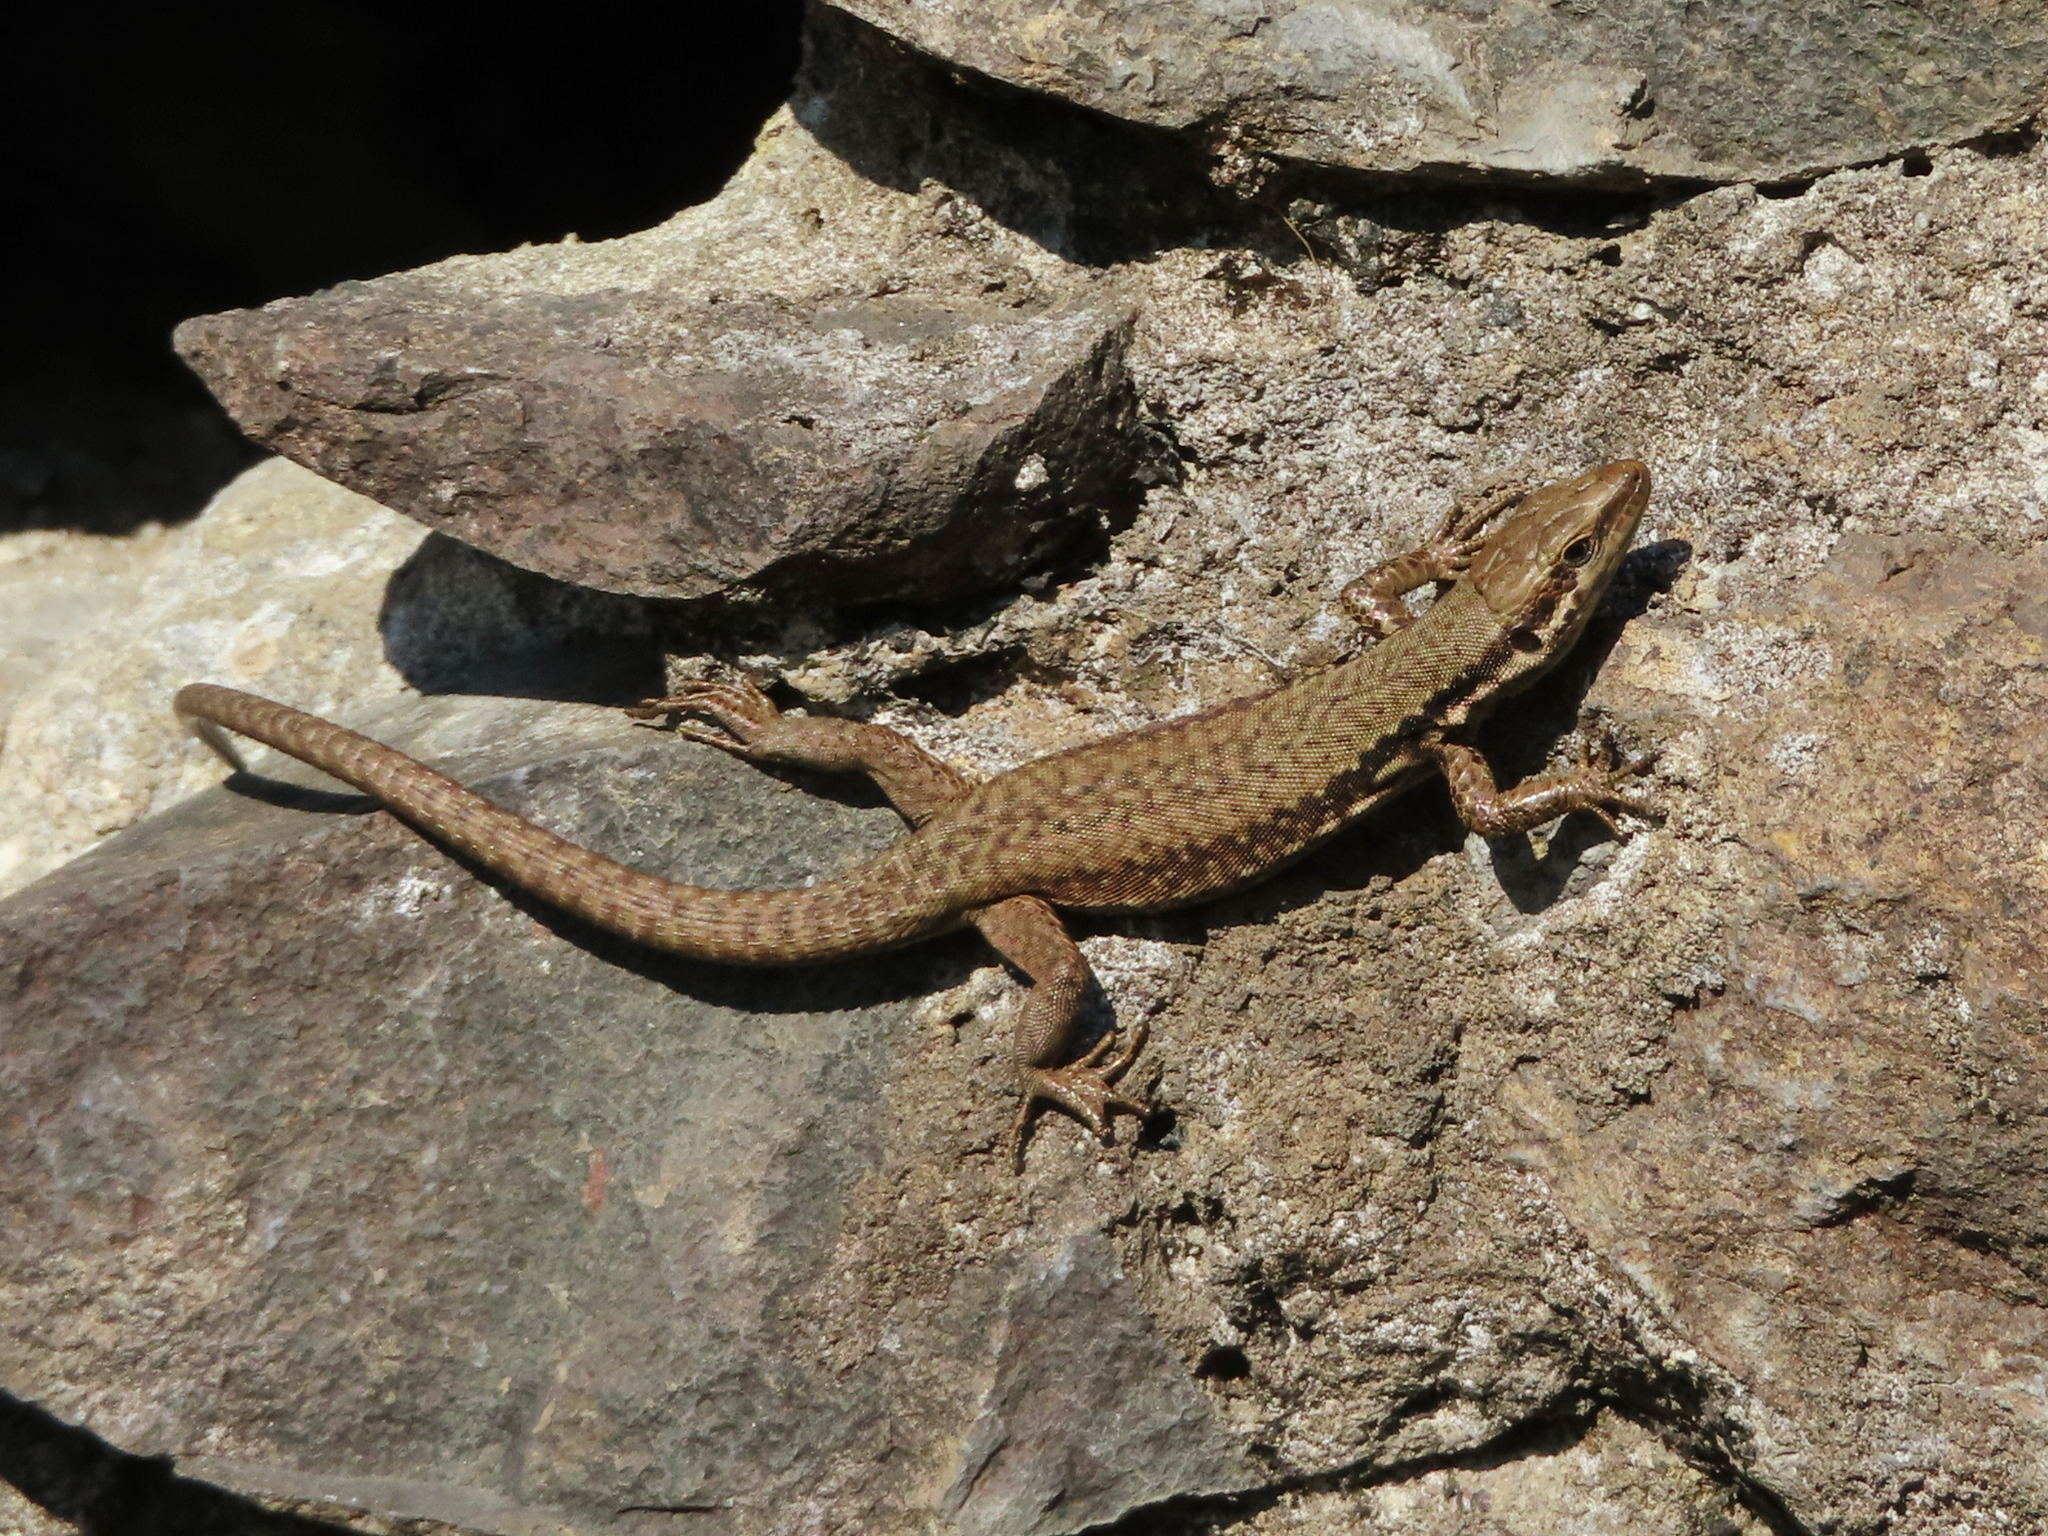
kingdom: Animalia
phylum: Chordata
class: Squamata
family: Lacertidae
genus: Phoenicolacerta
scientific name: Phoenicolacerta laevis
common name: Lebanon lizard
